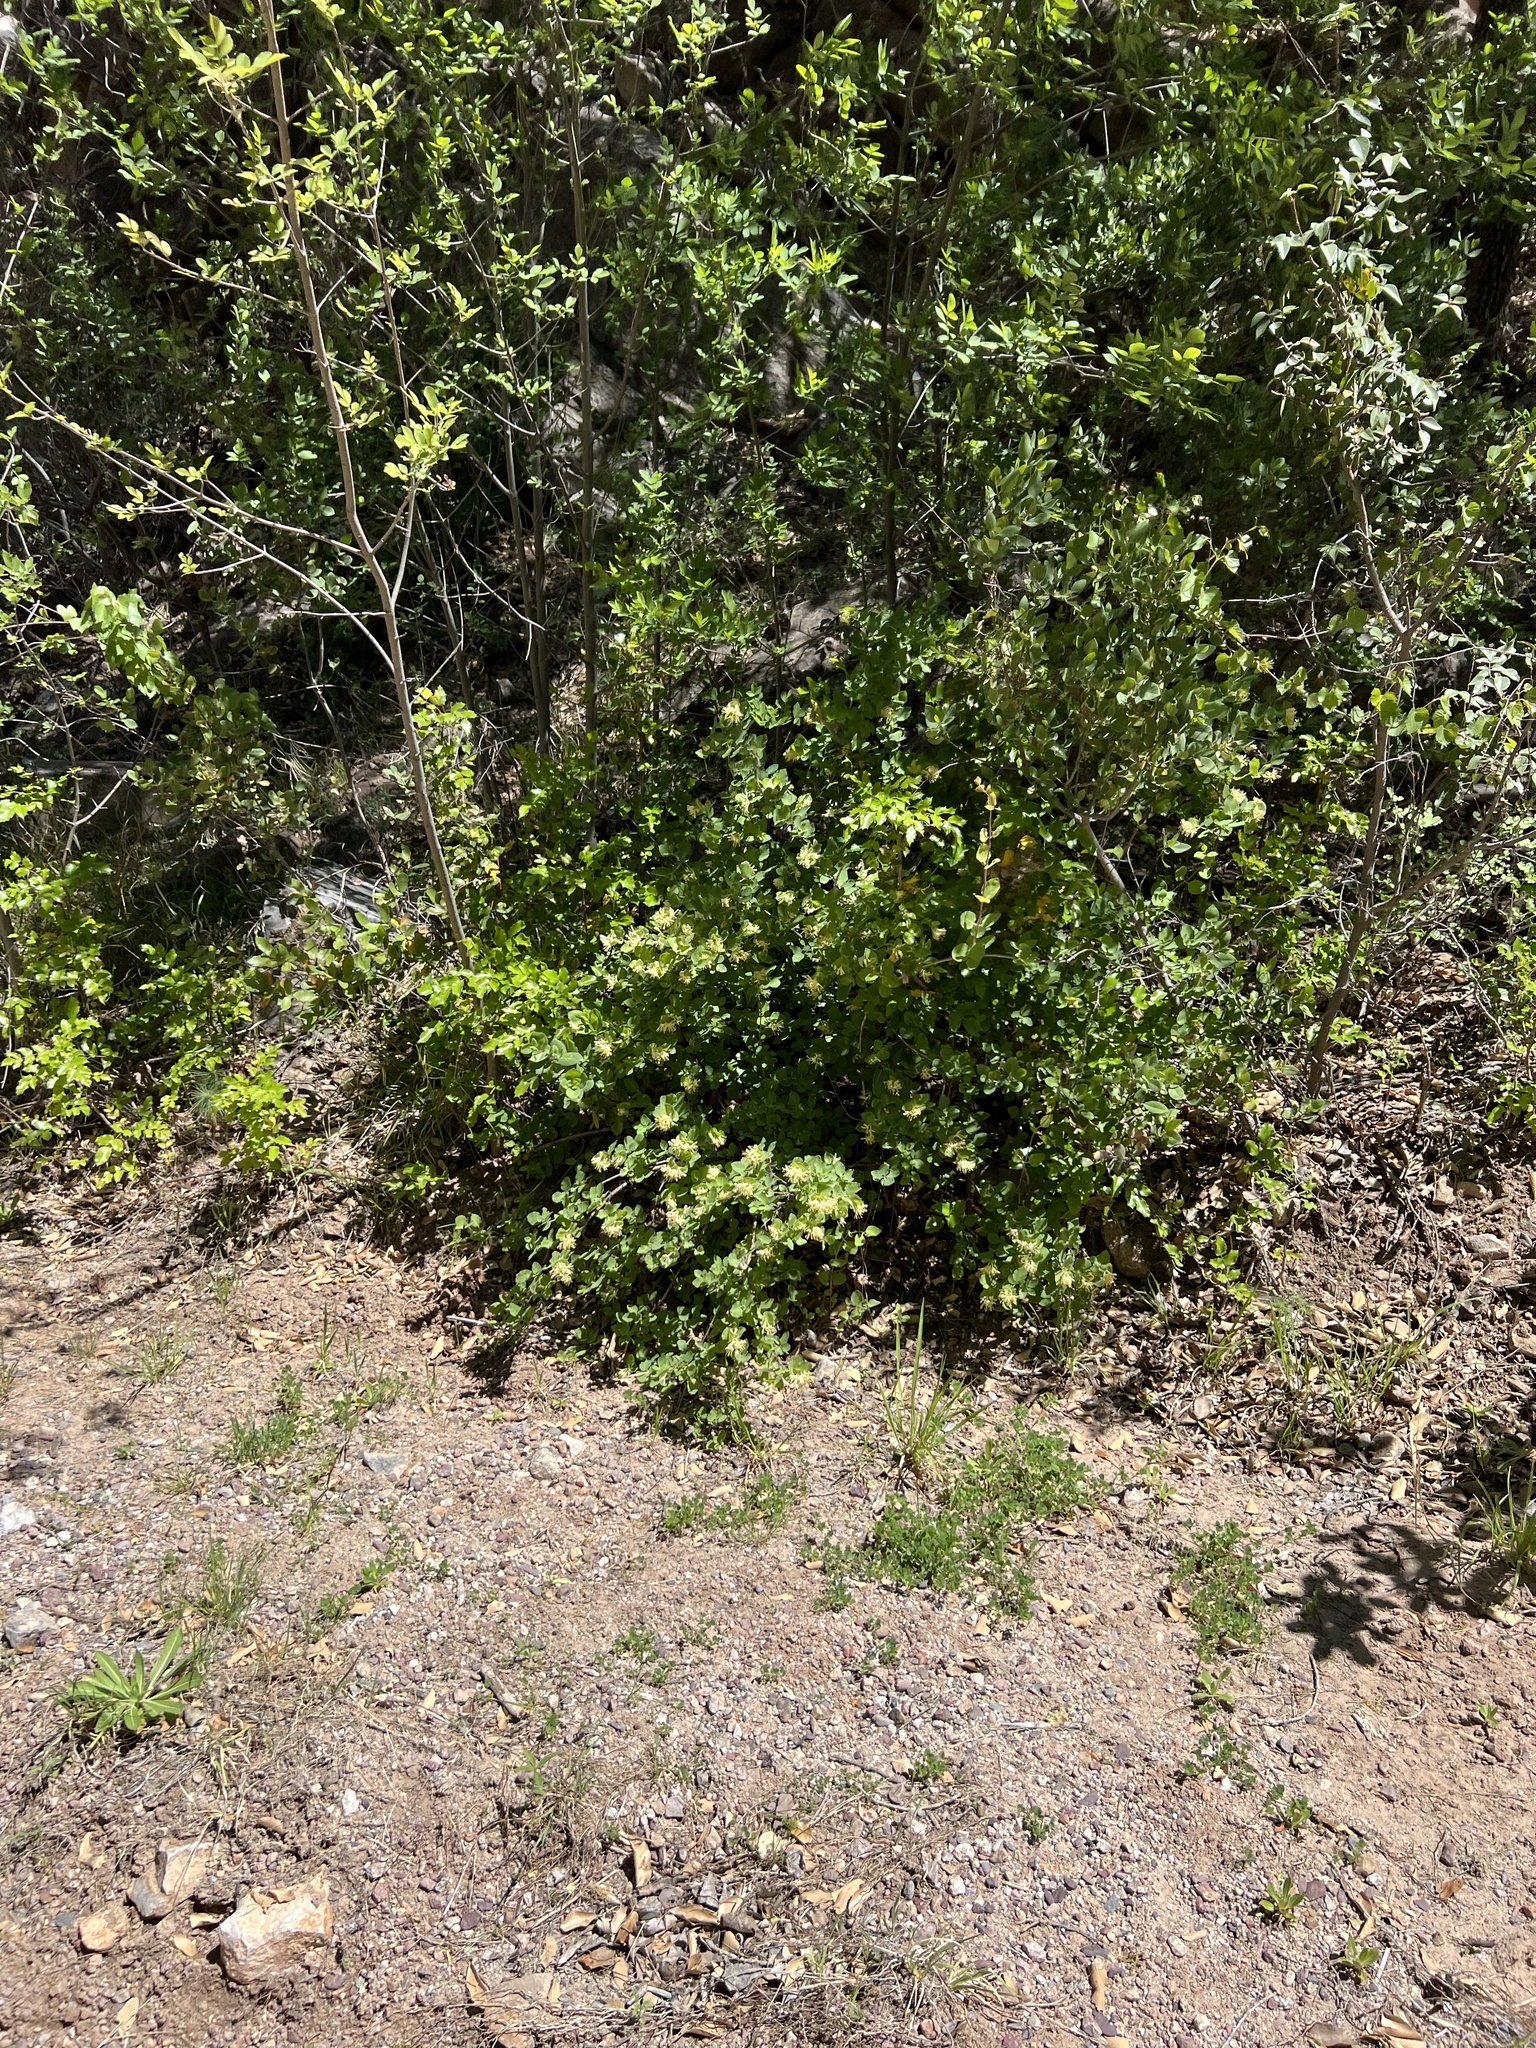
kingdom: Plantae
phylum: Tracheophyta
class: Magnoliopsida
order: Dipsacales
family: Caprifoliaceae
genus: Lonicera
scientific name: Lonicera albiflora
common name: White honeysuckle
